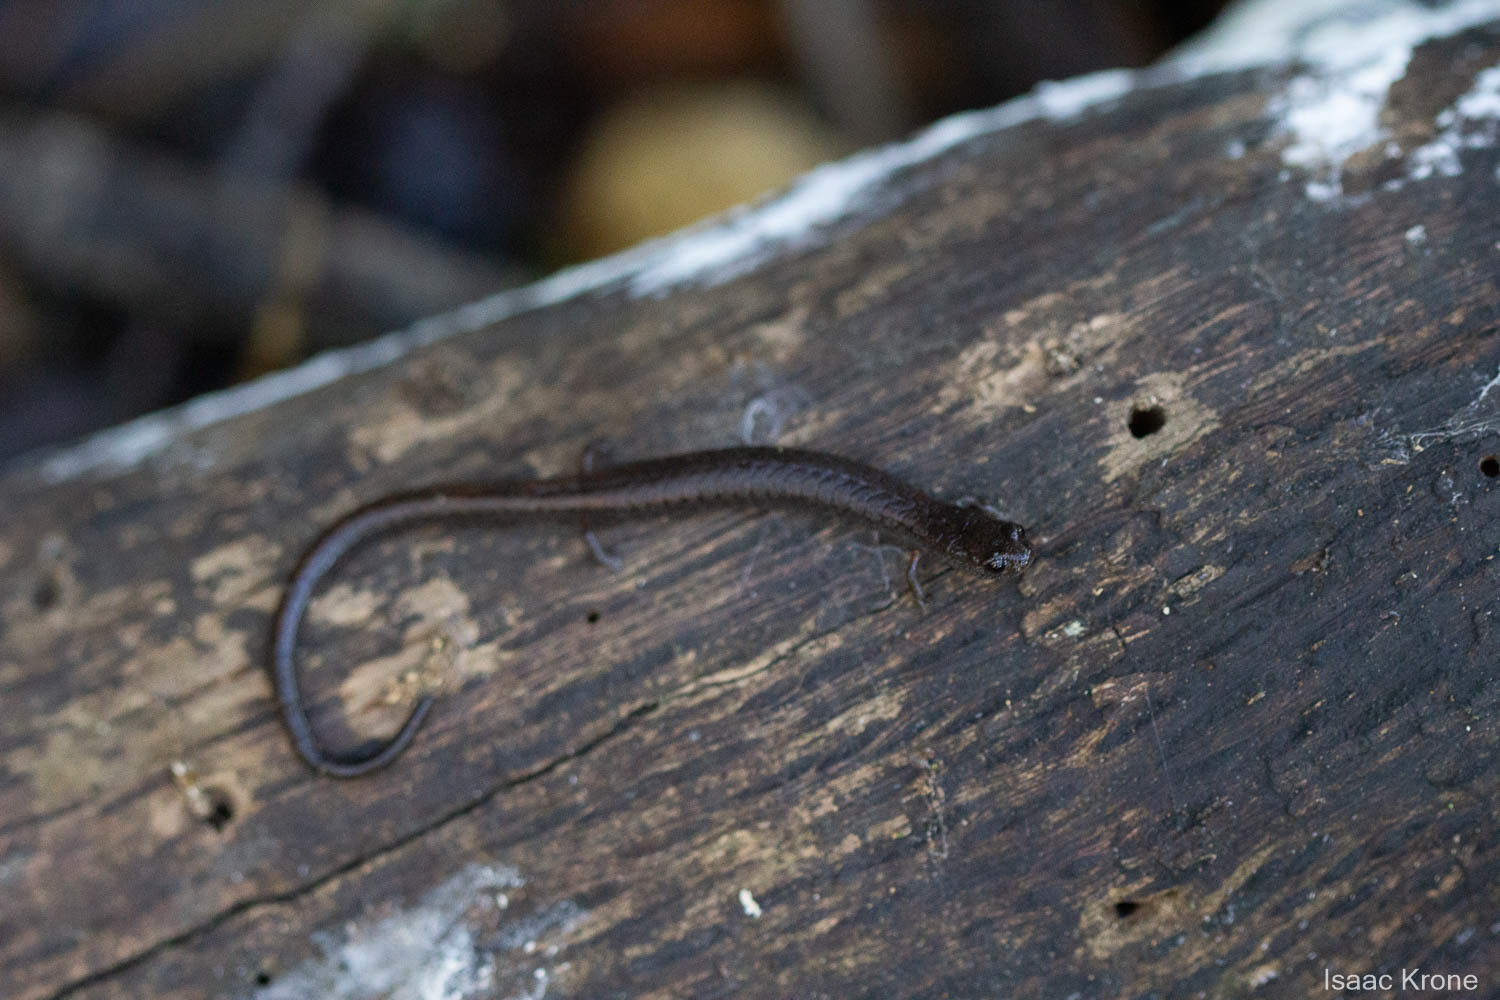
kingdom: Animalia
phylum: Chordata
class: Amphibia
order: Caudata
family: Plethodontidae
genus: Batrachoseps
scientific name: Batrachoseps attenuatus
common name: California slender salamander
